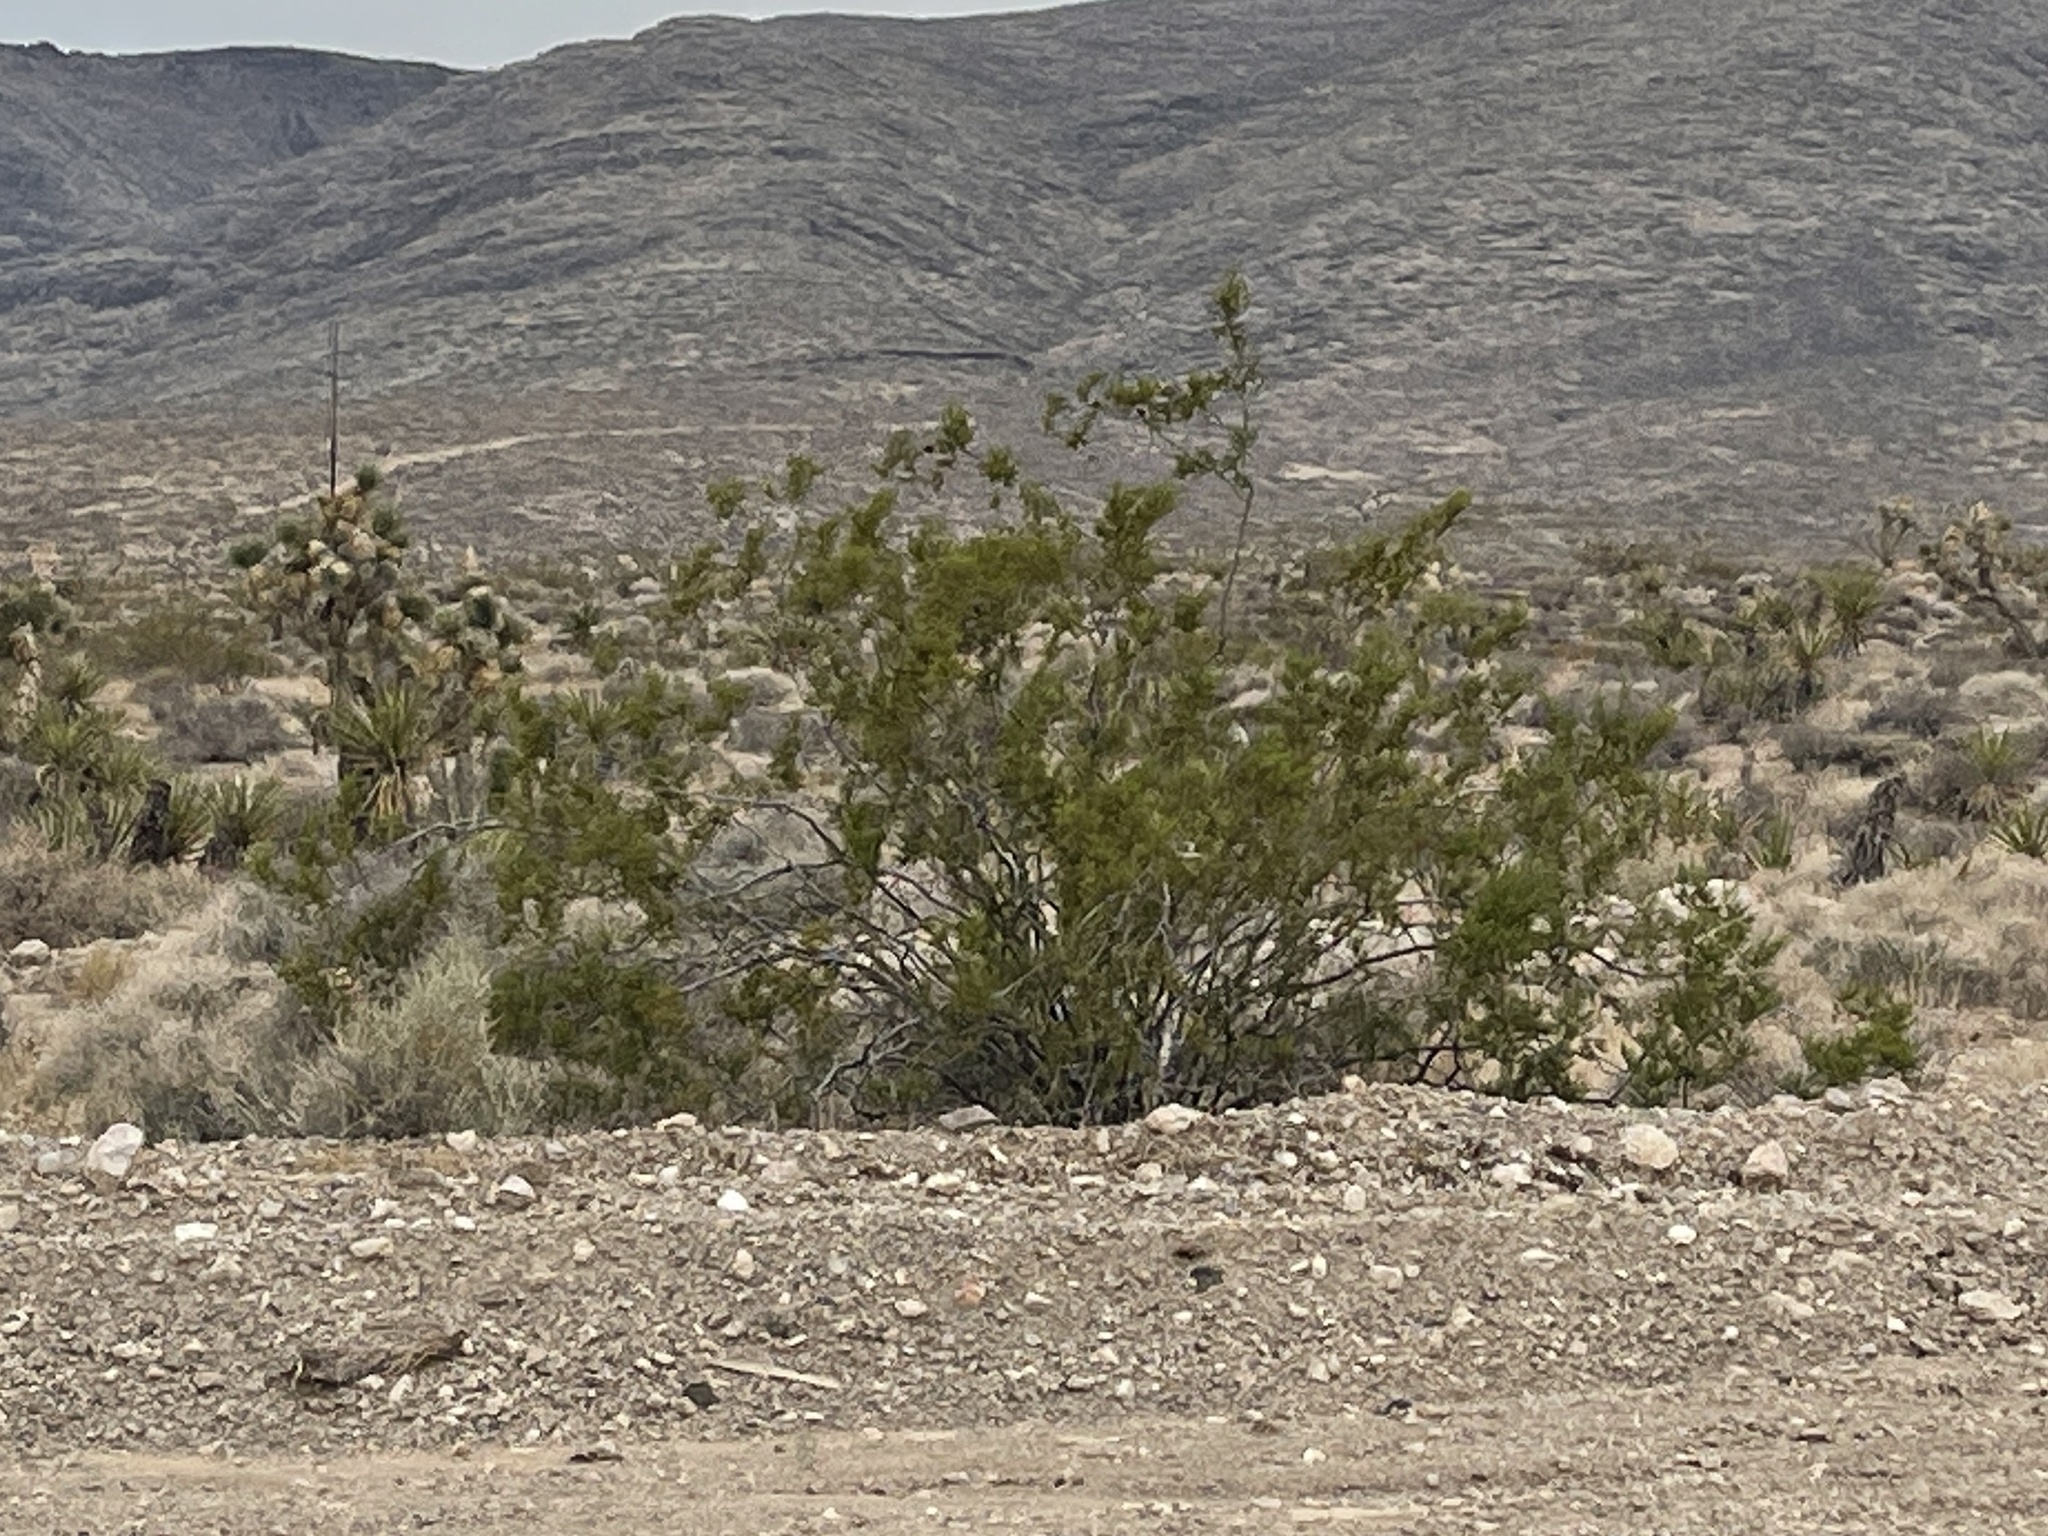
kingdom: Plantae
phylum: Tracheophyta
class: Magnoliopsida
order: Zygophyllales
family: Zygophyllaceae
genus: Larrea
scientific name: Larrea tridentata
